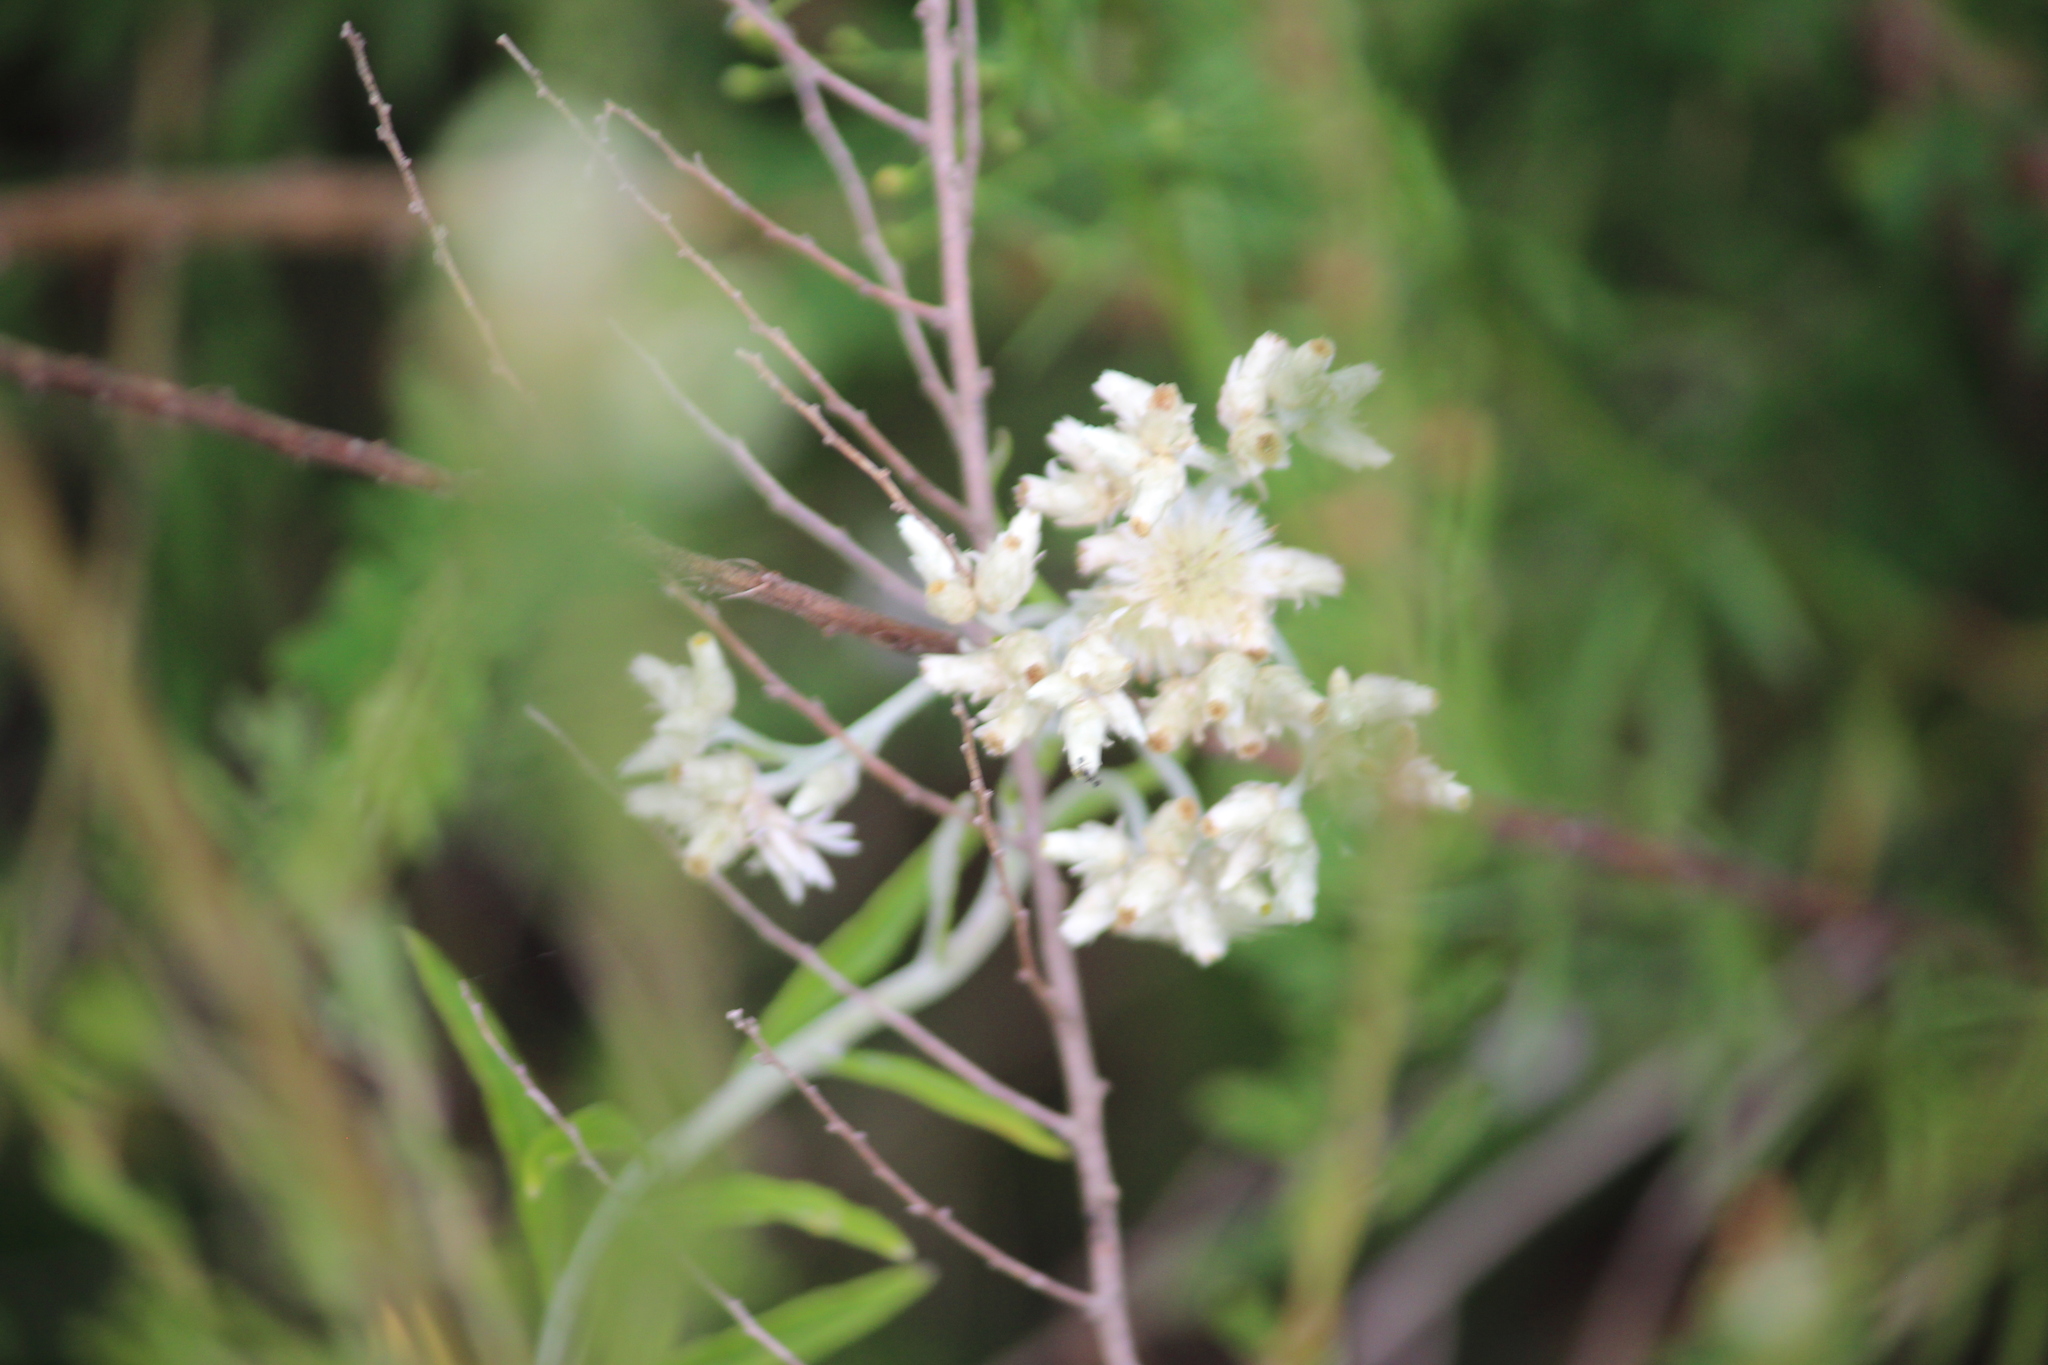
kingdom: Plantae
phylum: Tracheophyta
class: Magnoliopsida
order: Asterales
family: Asteraceae
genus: Pseudognaphalium
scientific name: Pseudognaphalium obtusifolium
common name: Eastern rabbit-tobacco
